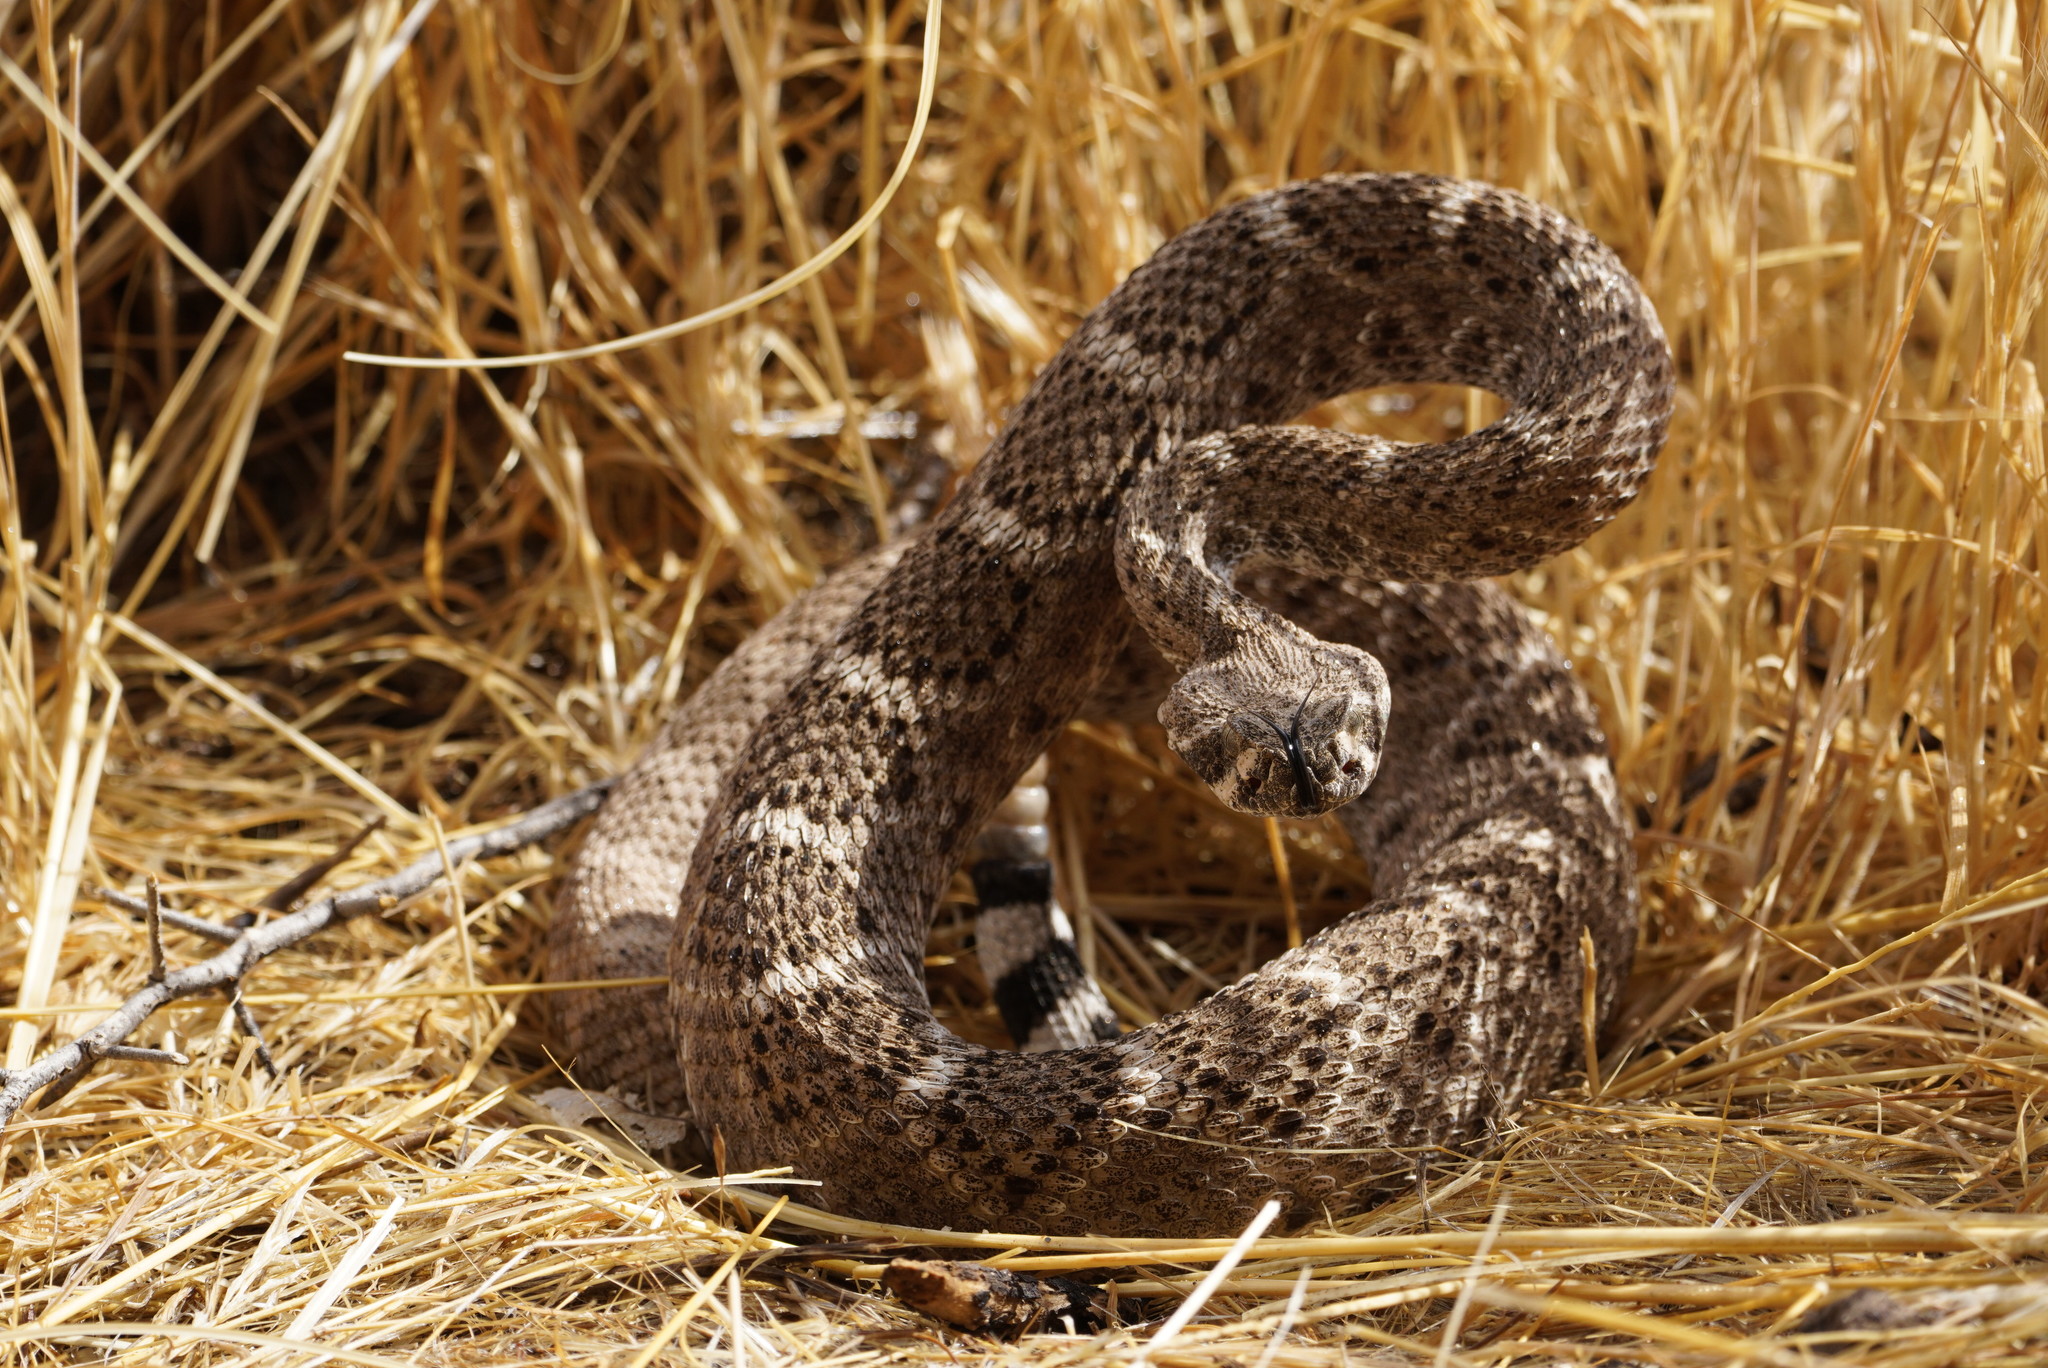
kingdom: Animalia
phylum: Chordata
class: Squamata
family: Viperidae
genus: Crotalus
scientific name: Crotalus atrox
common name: Western diamond-backed rattlesnake
